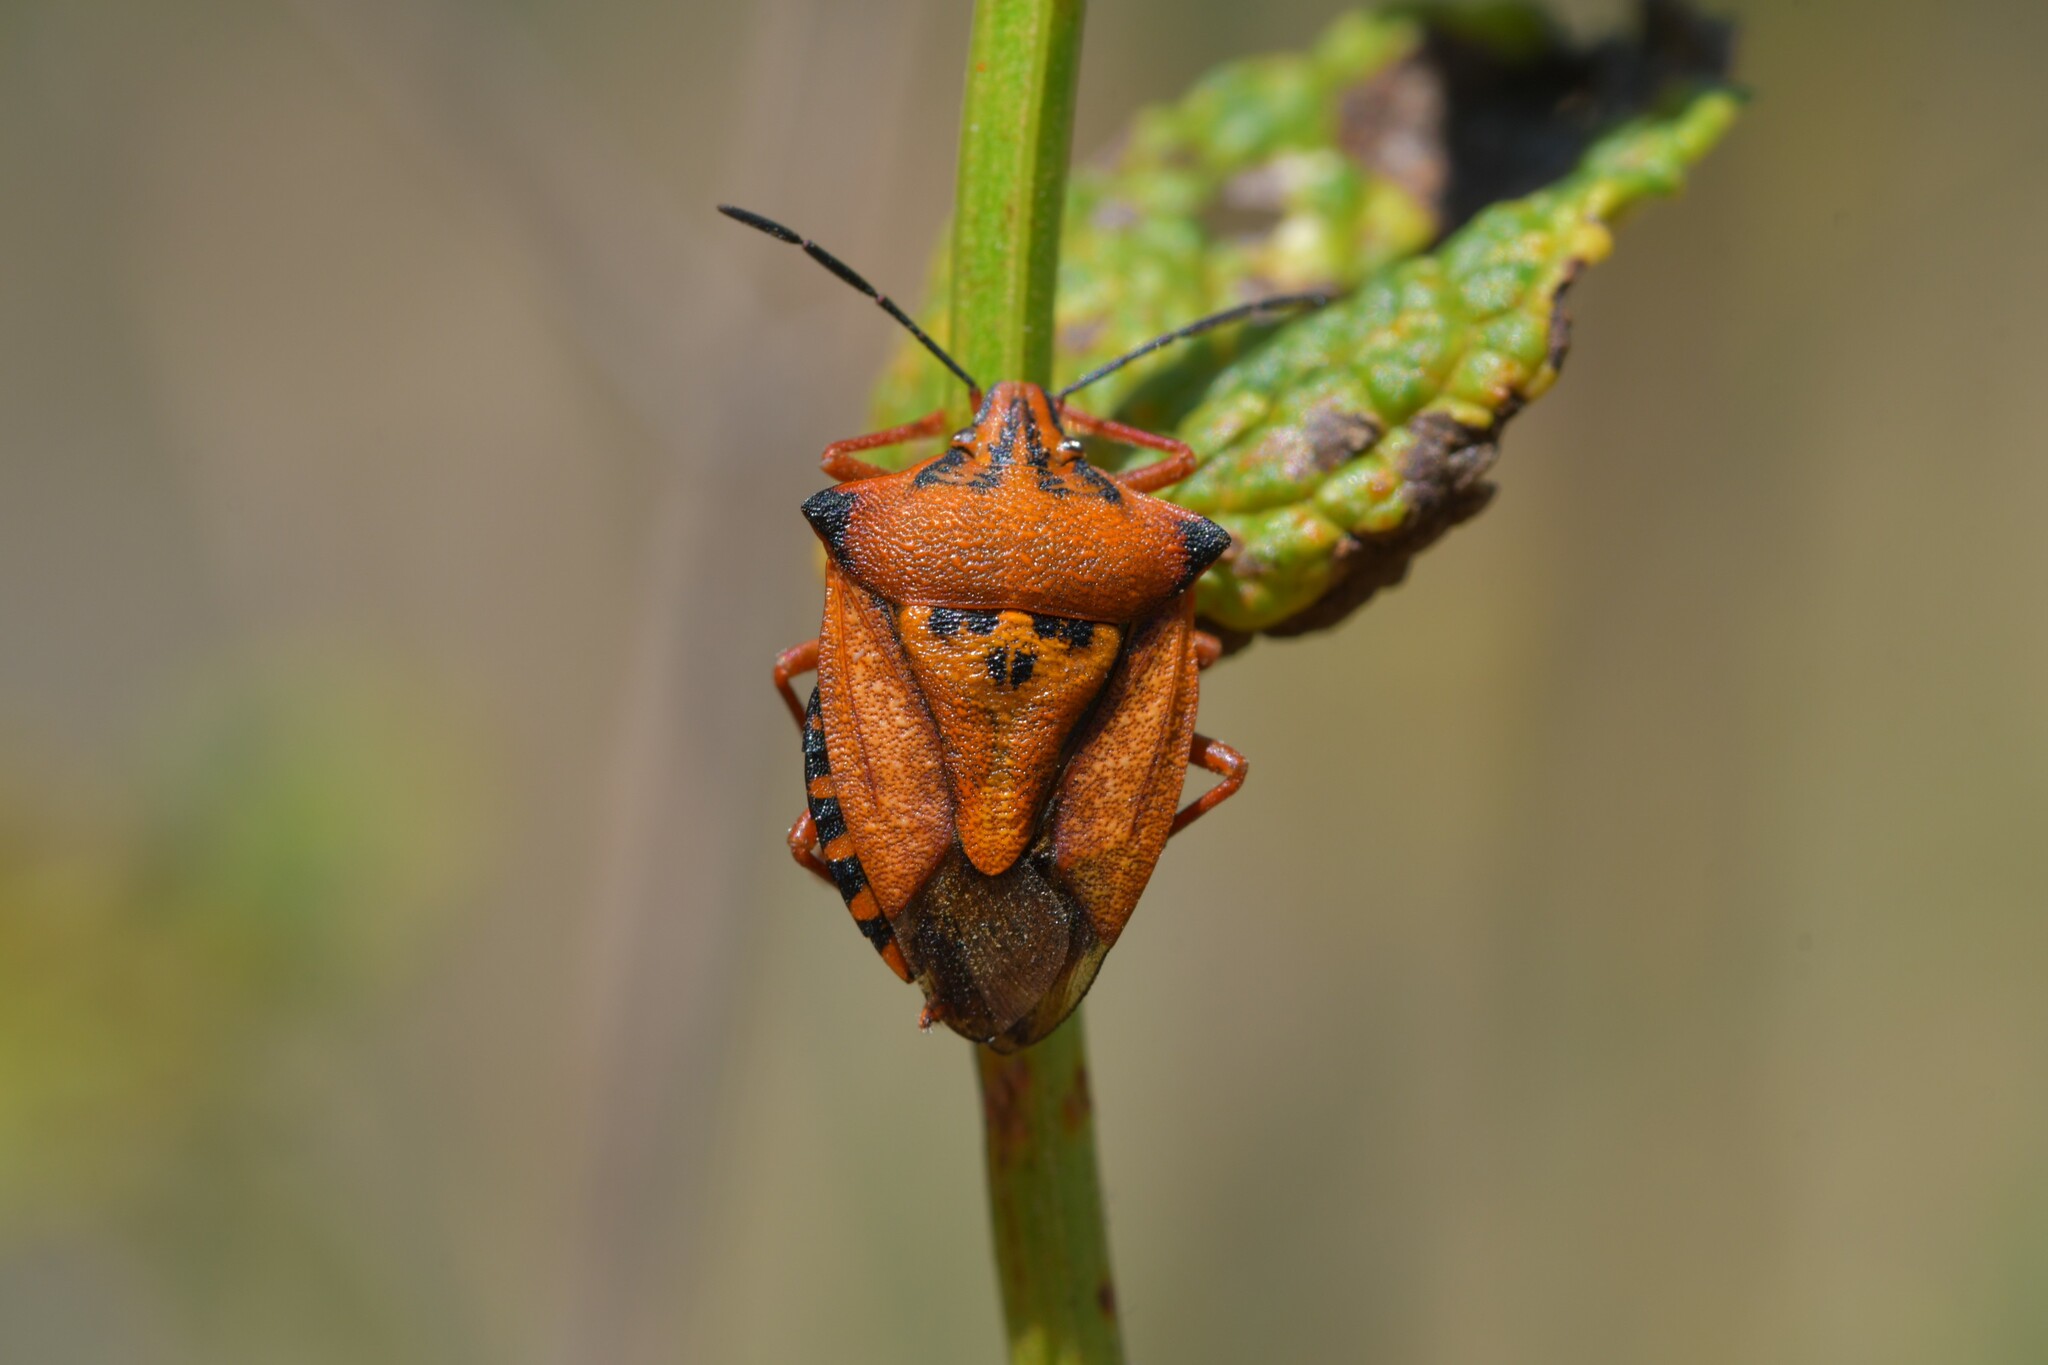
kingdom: Animalia
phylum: Arthropoda
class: Insecta
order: Hemiptera
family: Pentatomidae
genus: Carpocoris
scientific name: Carpocoris mediterraneus
